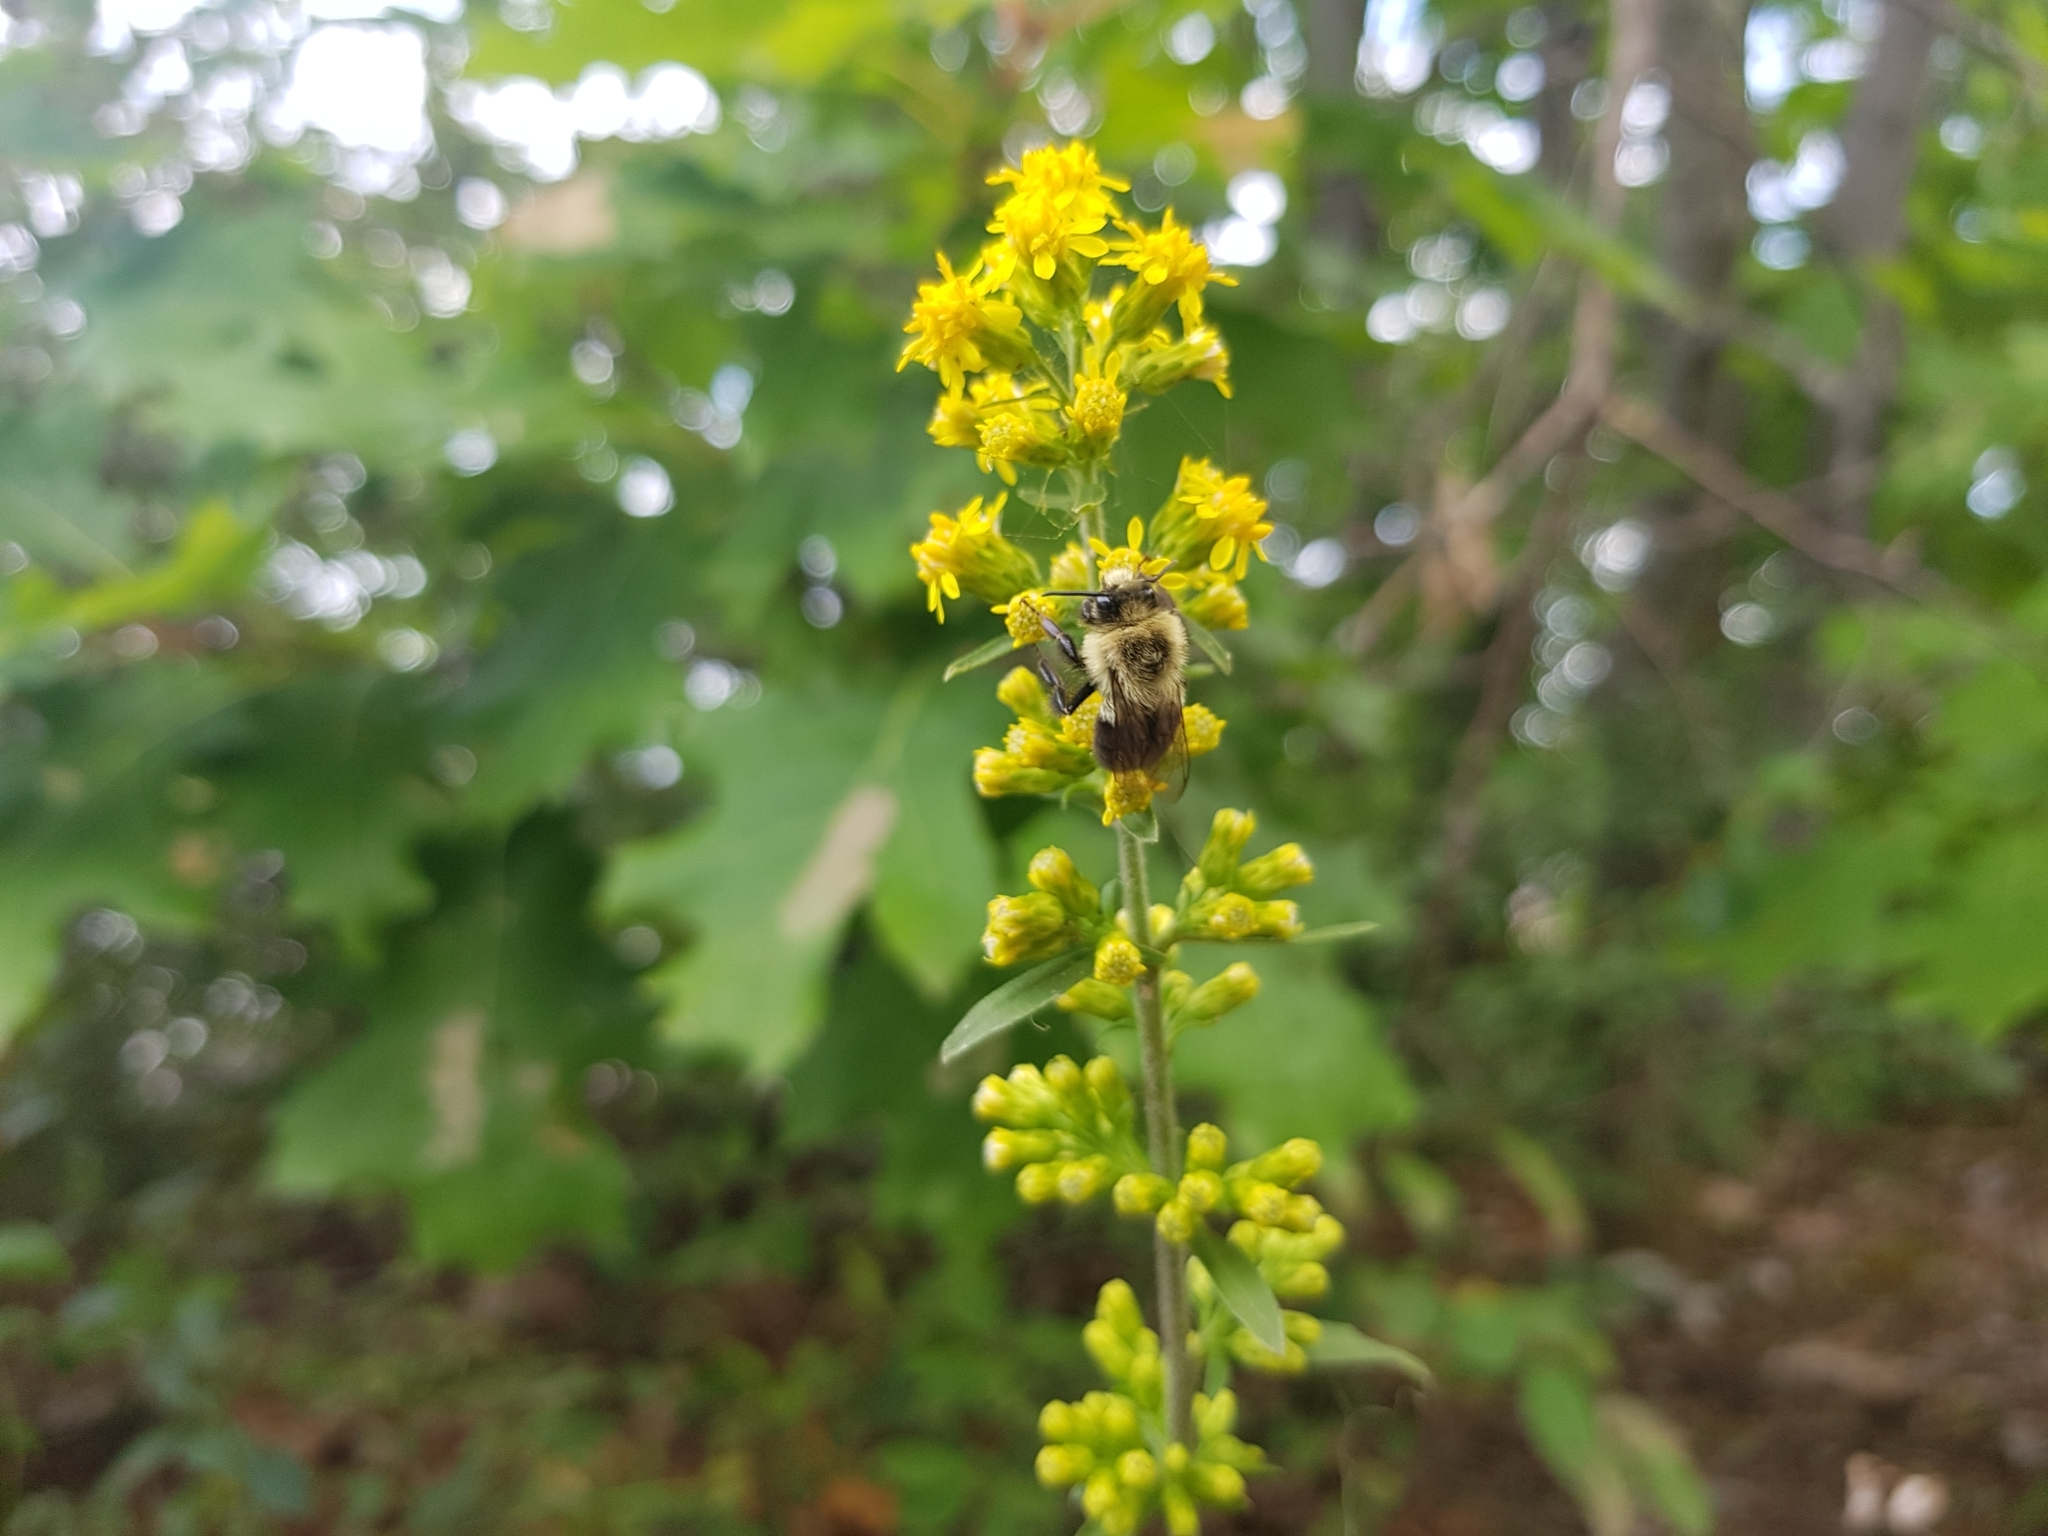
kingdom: Animalia
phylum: Arthropoda
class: Insecta
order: Hymenoptera
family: Apidae
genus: Bombus
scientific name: Bombus impatiens
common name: Common eastern bumble bee
